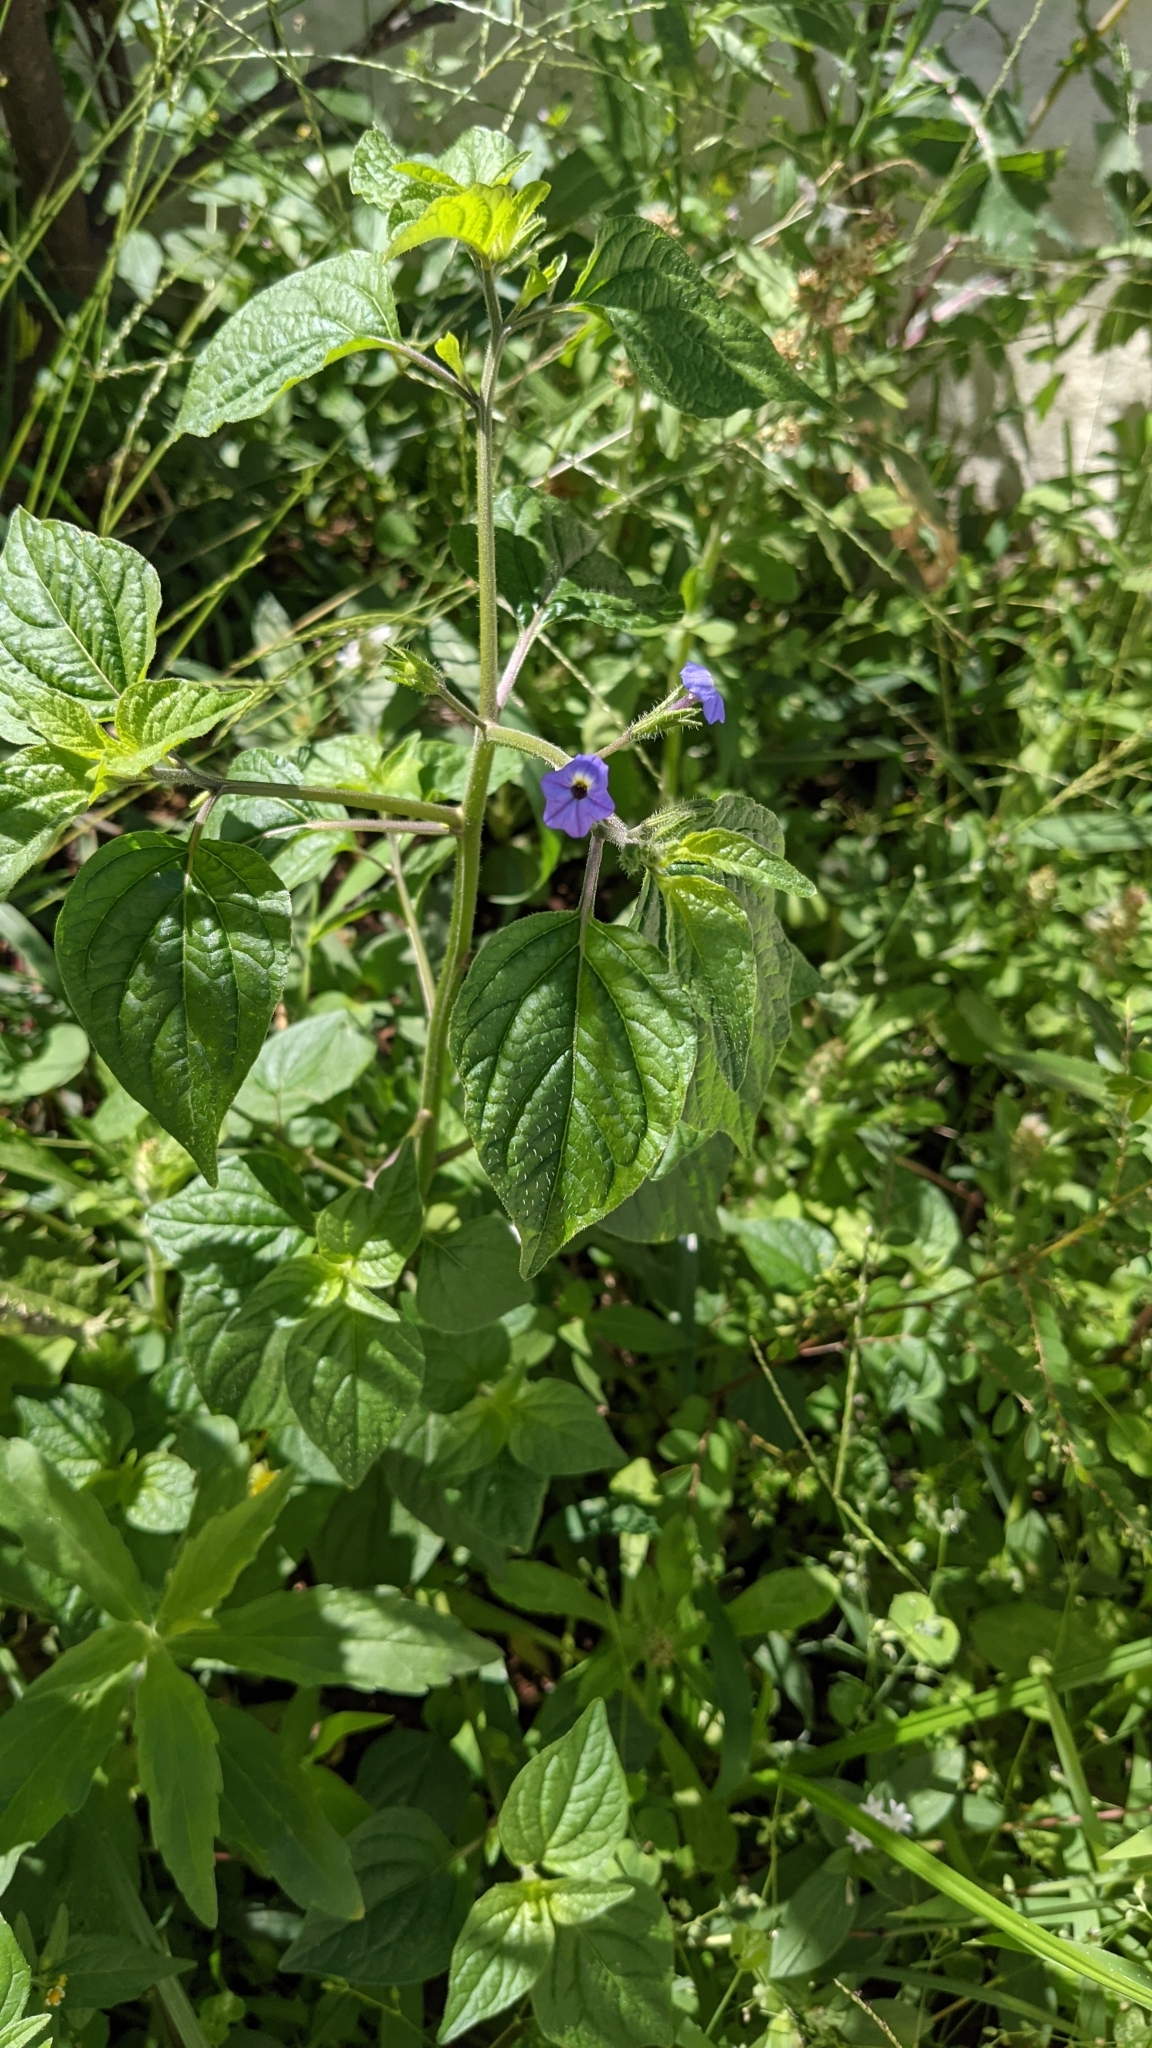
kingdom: Plantae
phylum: Tracheophyta
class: Magnoliopsida
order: Solanales
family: Solanaceae
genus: Browallia
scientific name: Browallia americana
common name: Jamaican forget-me-not
